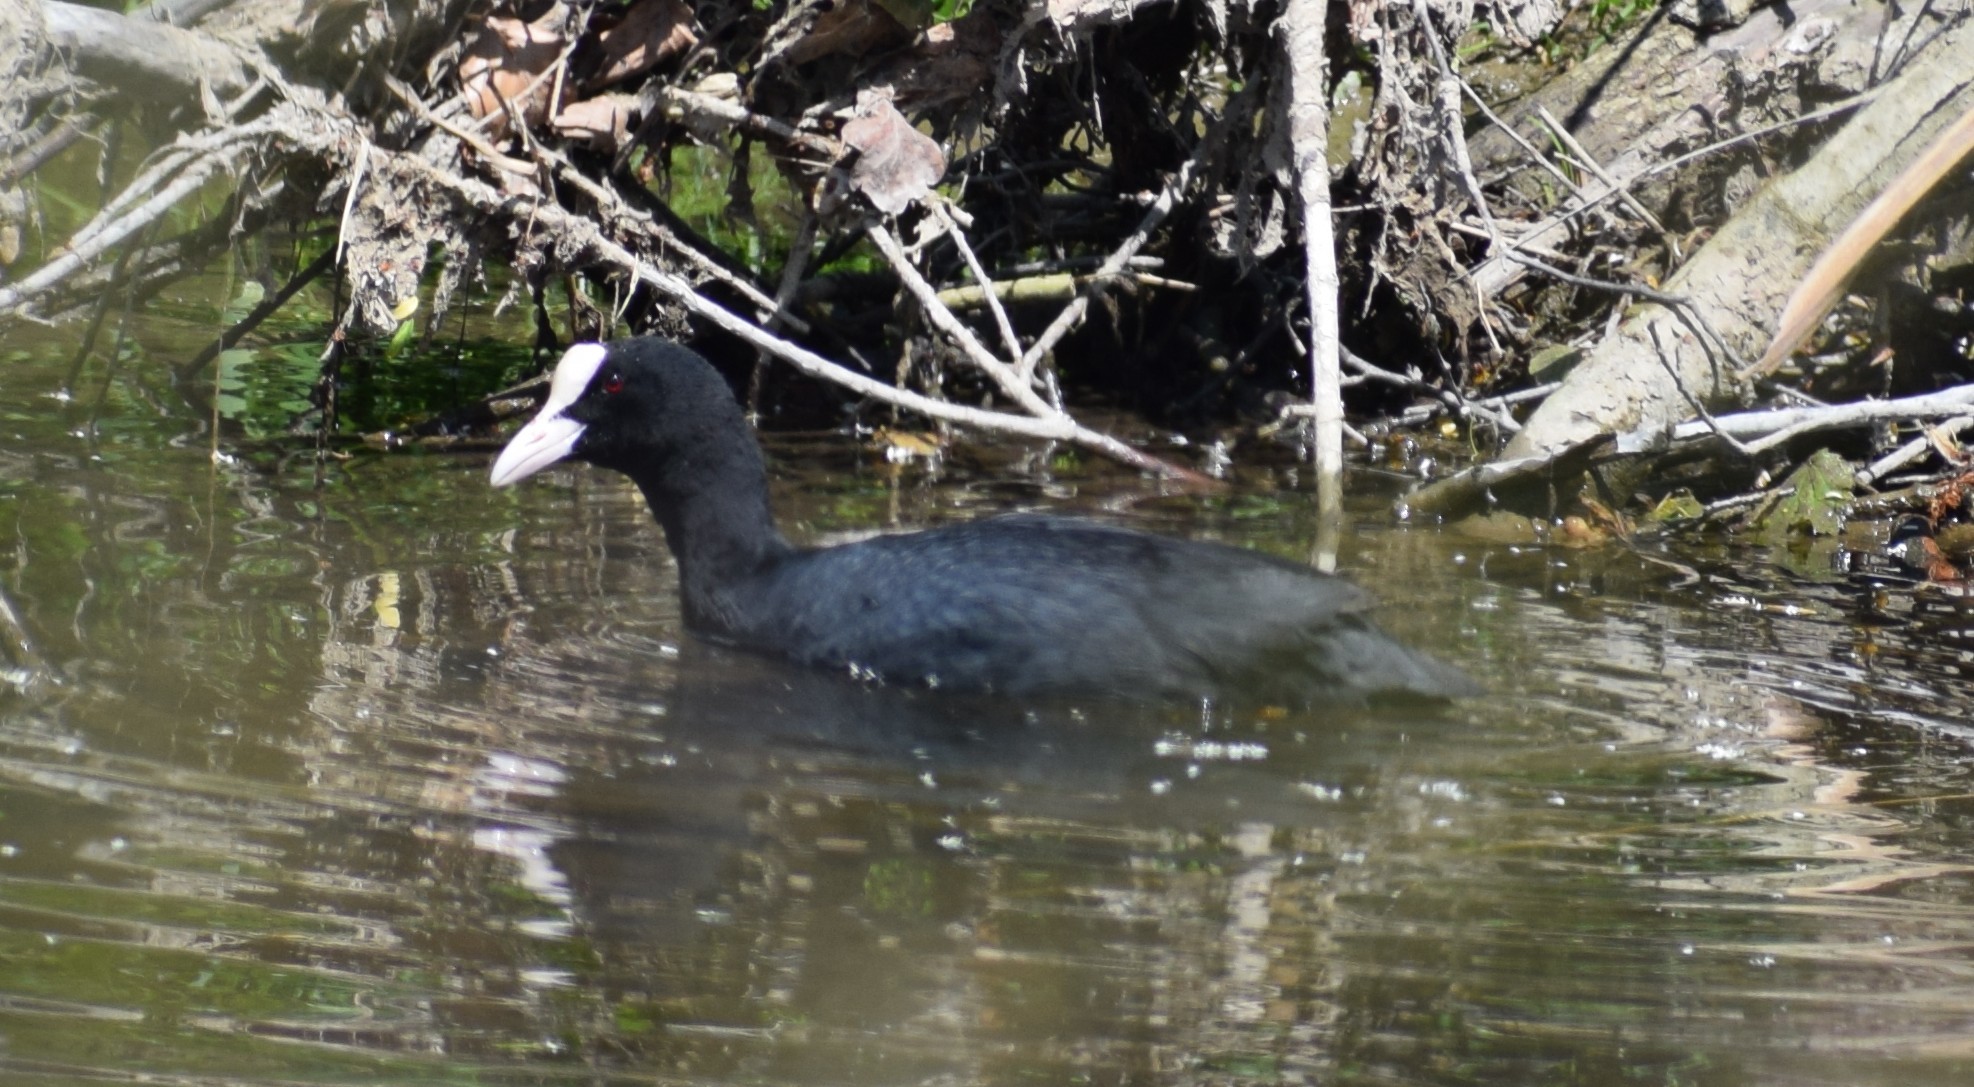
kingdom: Animalia
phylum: Chordata
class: Aves
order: Gruiformes
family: Rallidae
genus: Fulica
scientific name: Fulica atra
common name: Eurasian coot
